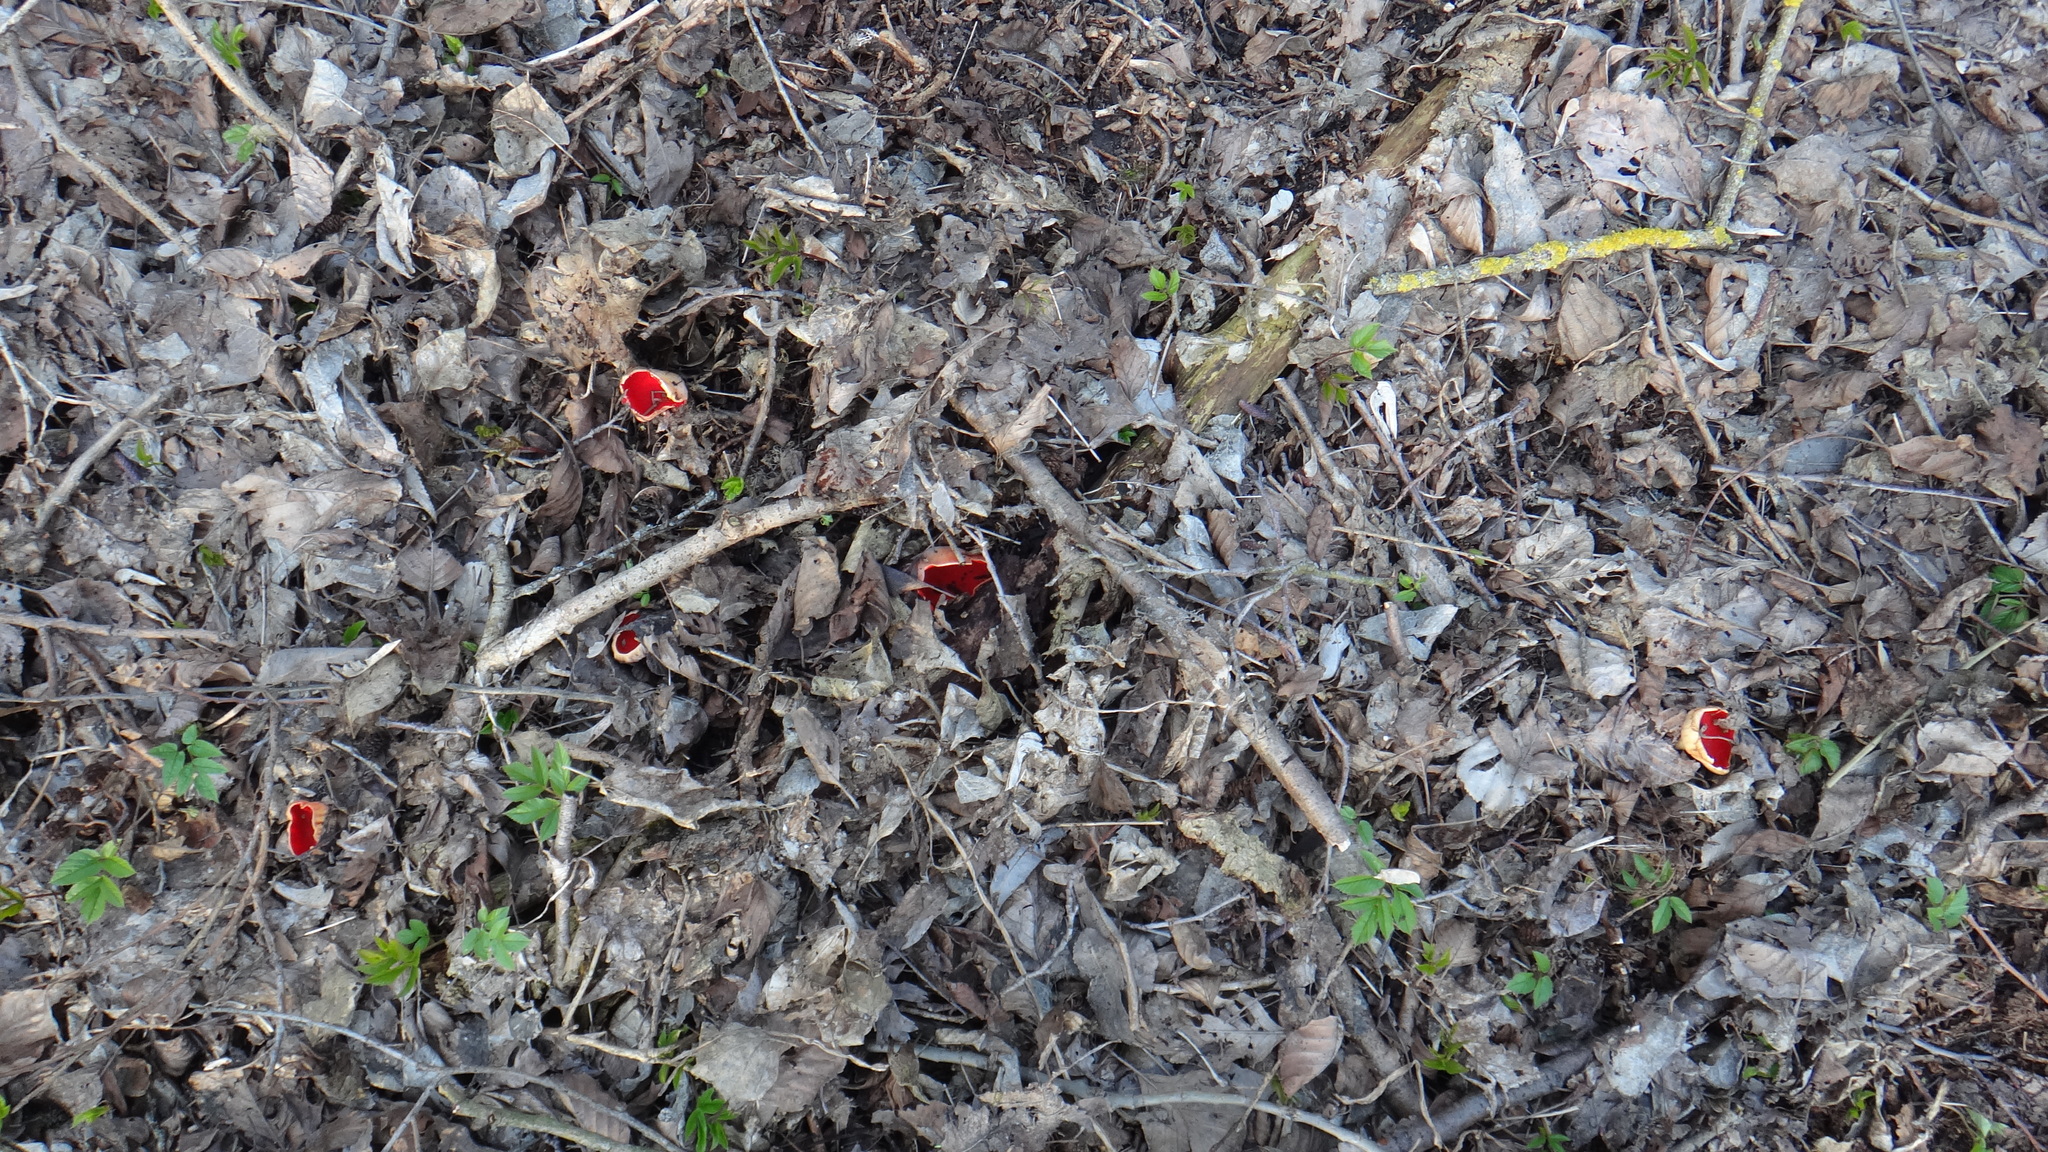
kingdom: Fungi
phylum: Ascomycota
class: Pezizomycetes
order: Pezizales
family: Sarcoscyphaceae
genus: Sarcoscypha
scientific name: Sarcoscypha
